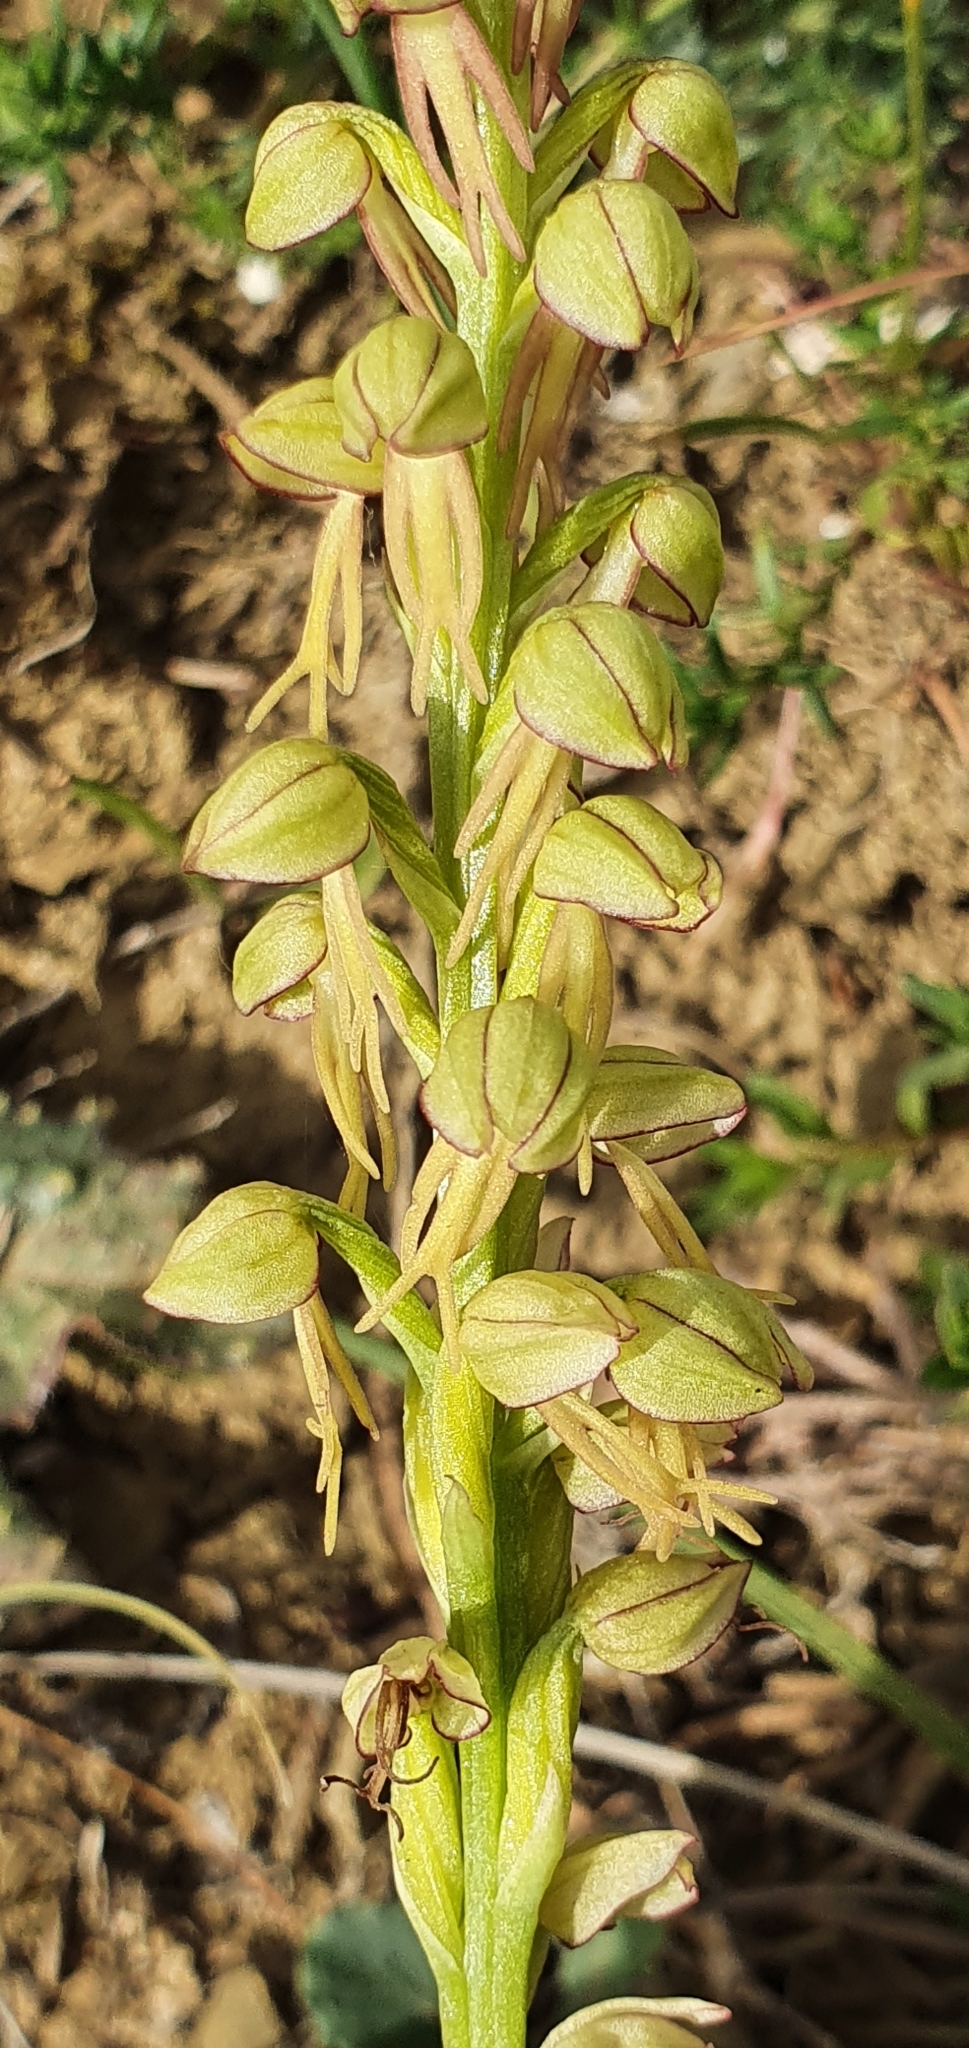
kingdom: Plantae
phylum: Tracheophyta
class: Liliopsida
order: Asparagales
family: Orchidaceae
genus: Orchis
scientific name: Orchis anthropophora
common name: Man orchid
